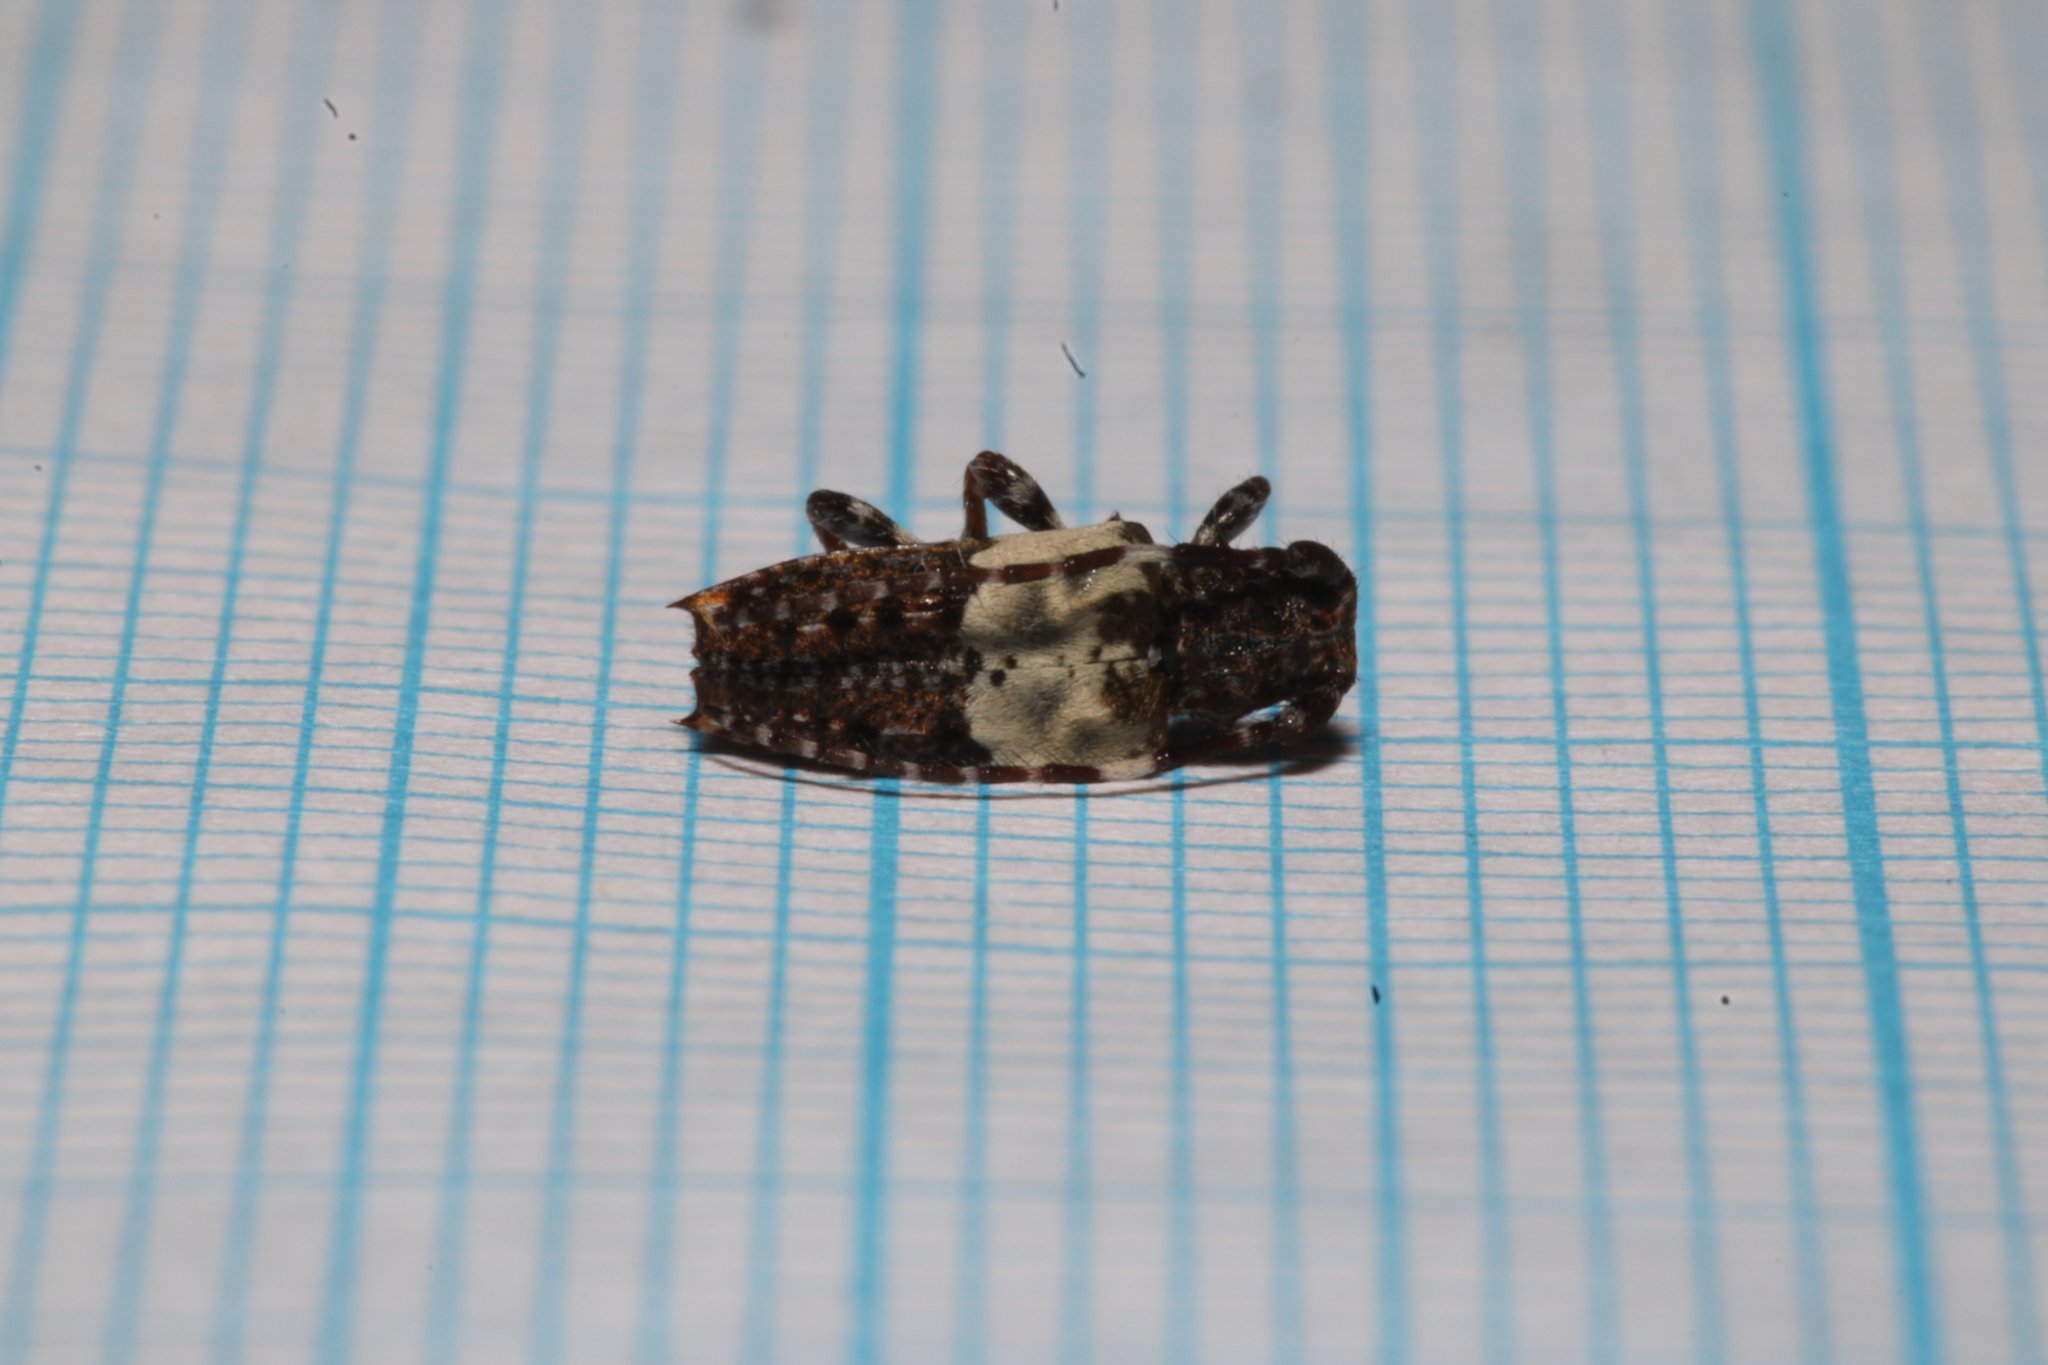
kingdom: Animalia
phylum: Arthropoda
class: Insecta
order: Coleoptera
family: Cerambycidae
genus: Pogonocherus
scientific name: Pogonocherus hispidulus
